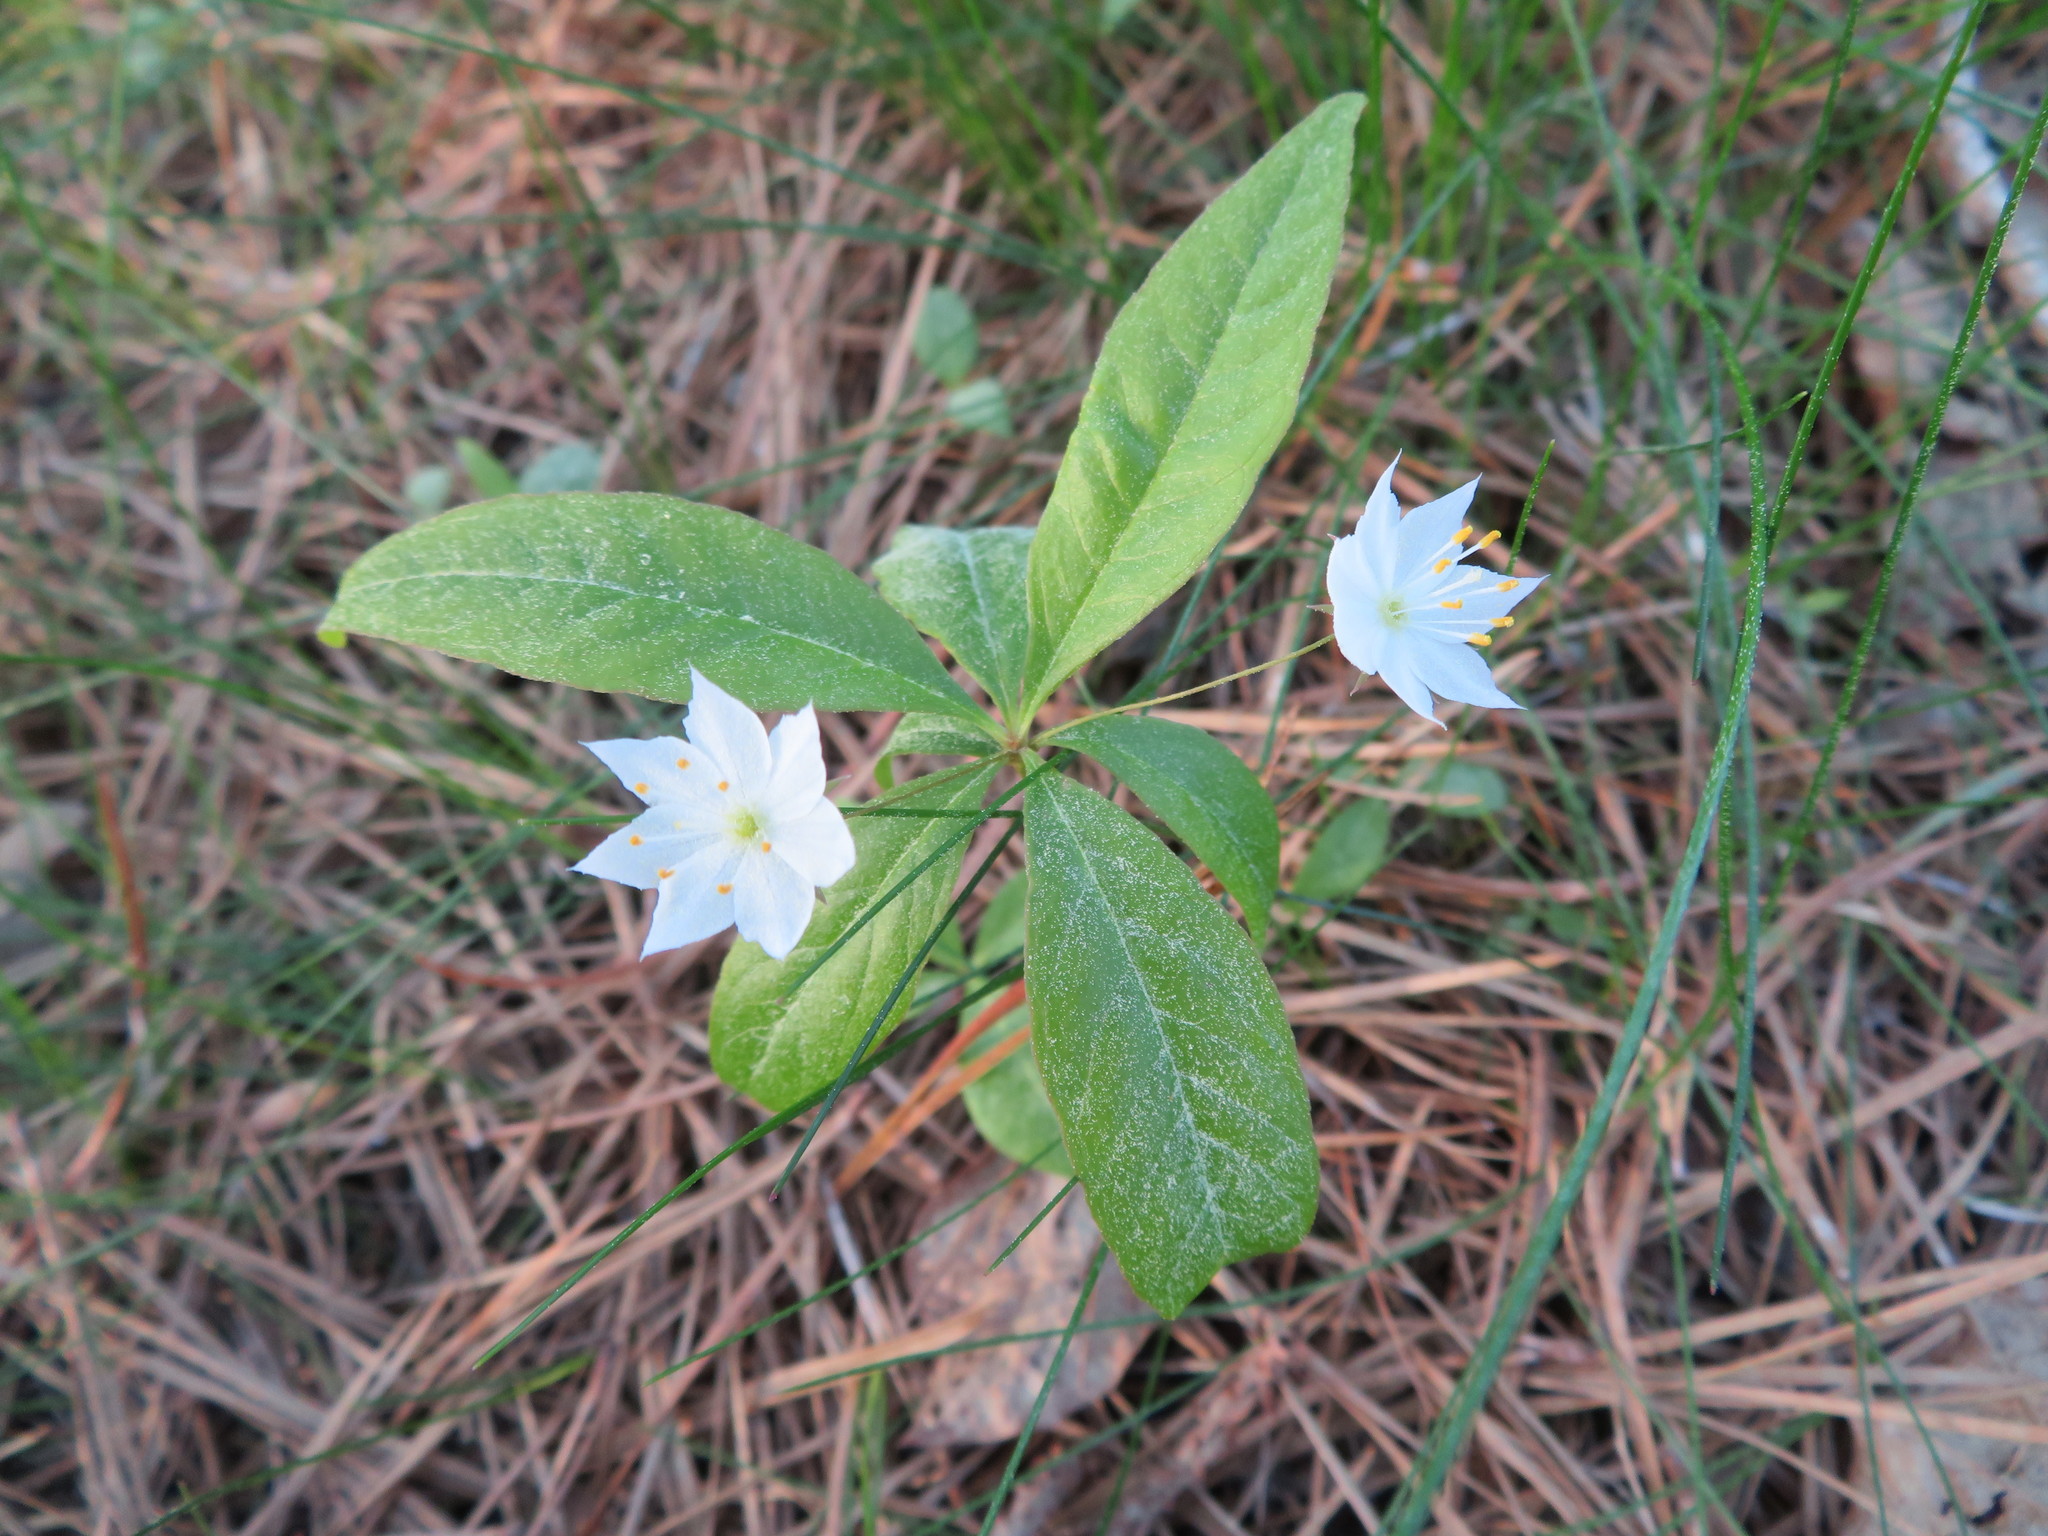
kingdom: Plantae
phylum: Tracheophyta
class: Magnoliopsida
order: Ericales
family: Primulaceae
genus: Lysimachia
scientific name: Lysimachia borealis
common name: American starflower
